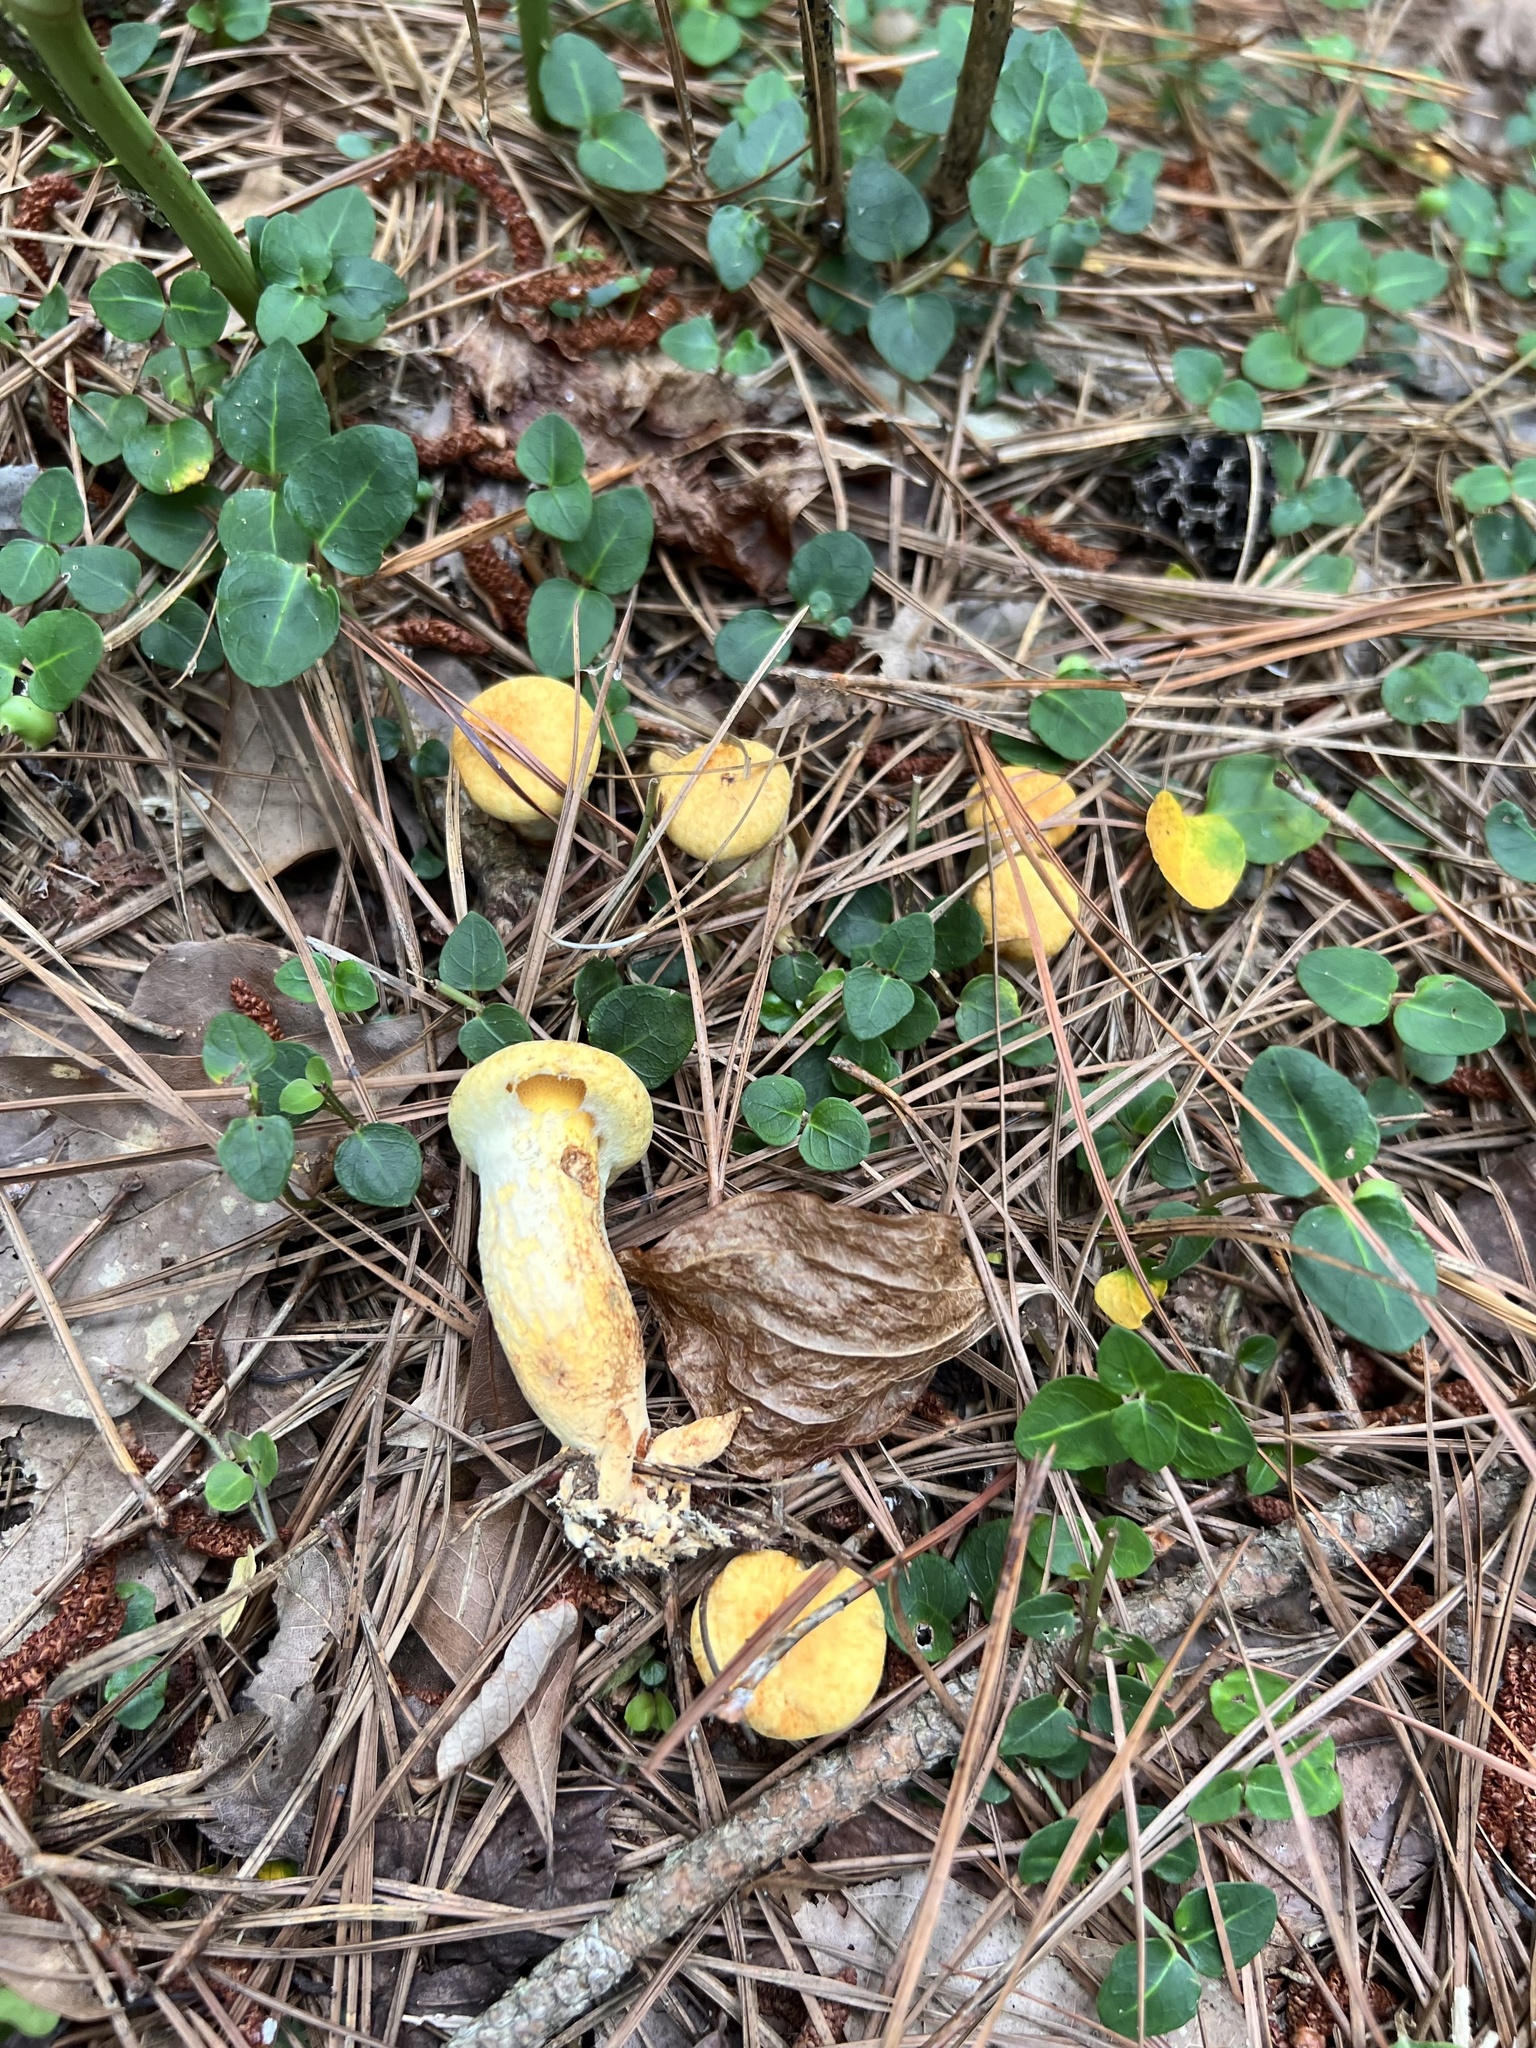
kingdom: Fungi
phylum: Basidiomycota
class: Agaricomycetes
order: Boletales
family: Suillaceae
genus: Suillus
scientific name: Suillus decipiens
